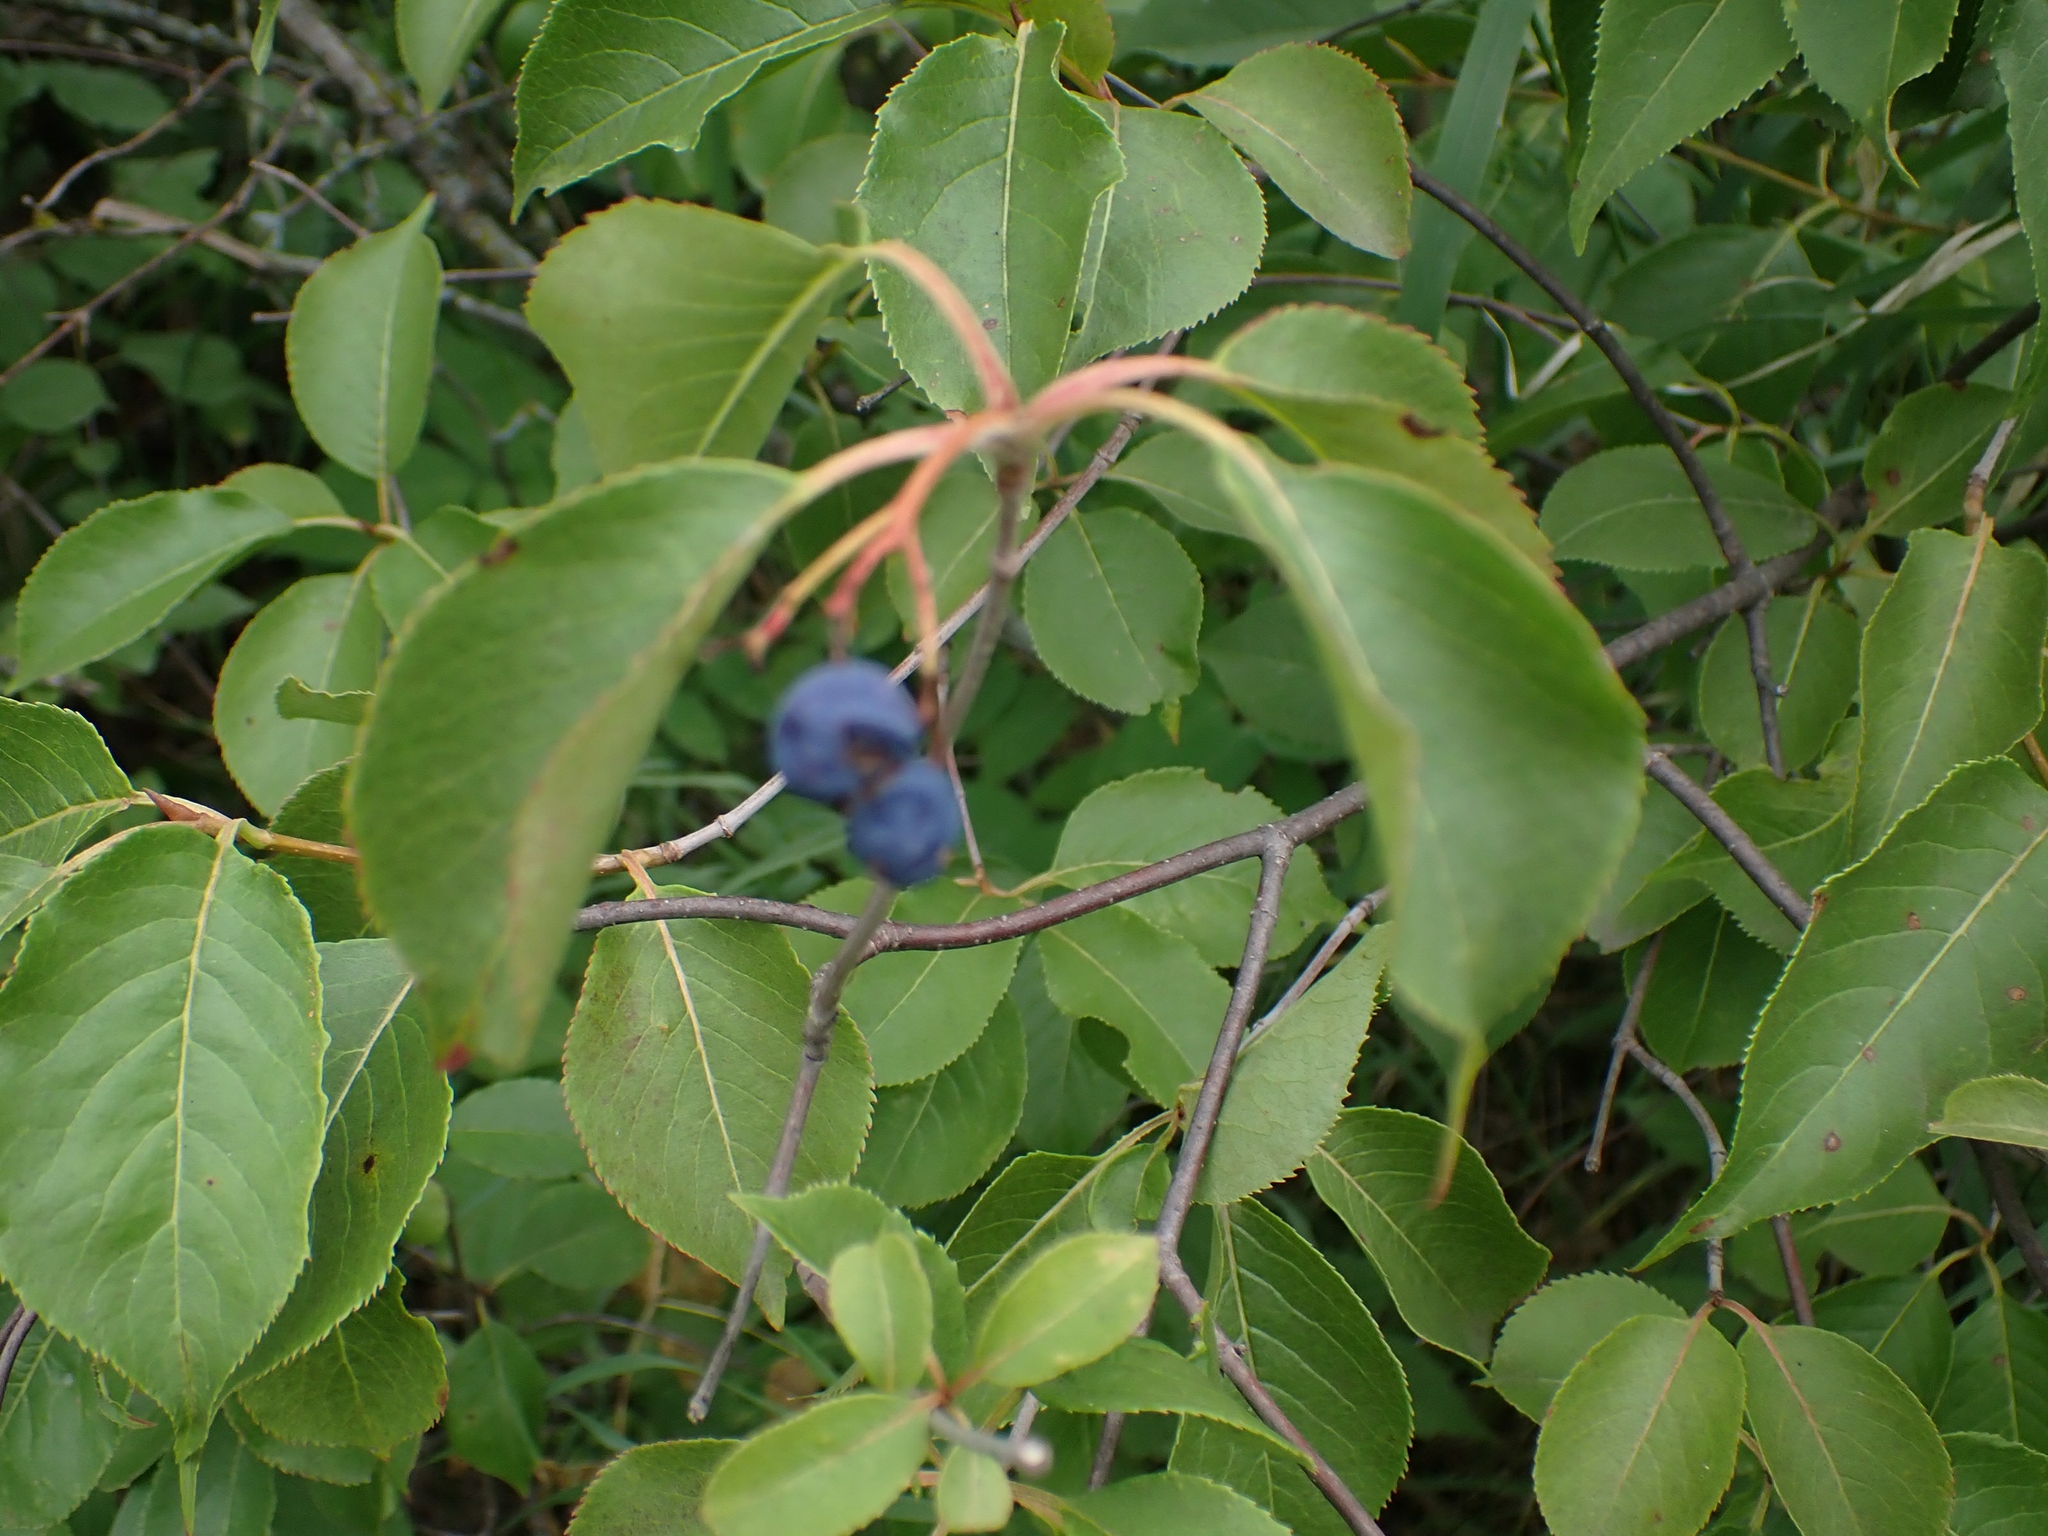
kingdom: Plantae
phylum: Tracheophyta
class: Magnoliopsida
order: Dipsacales
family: Viburnaceae
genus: Viburnum
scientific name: Viburnum lentago
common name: Black haw
